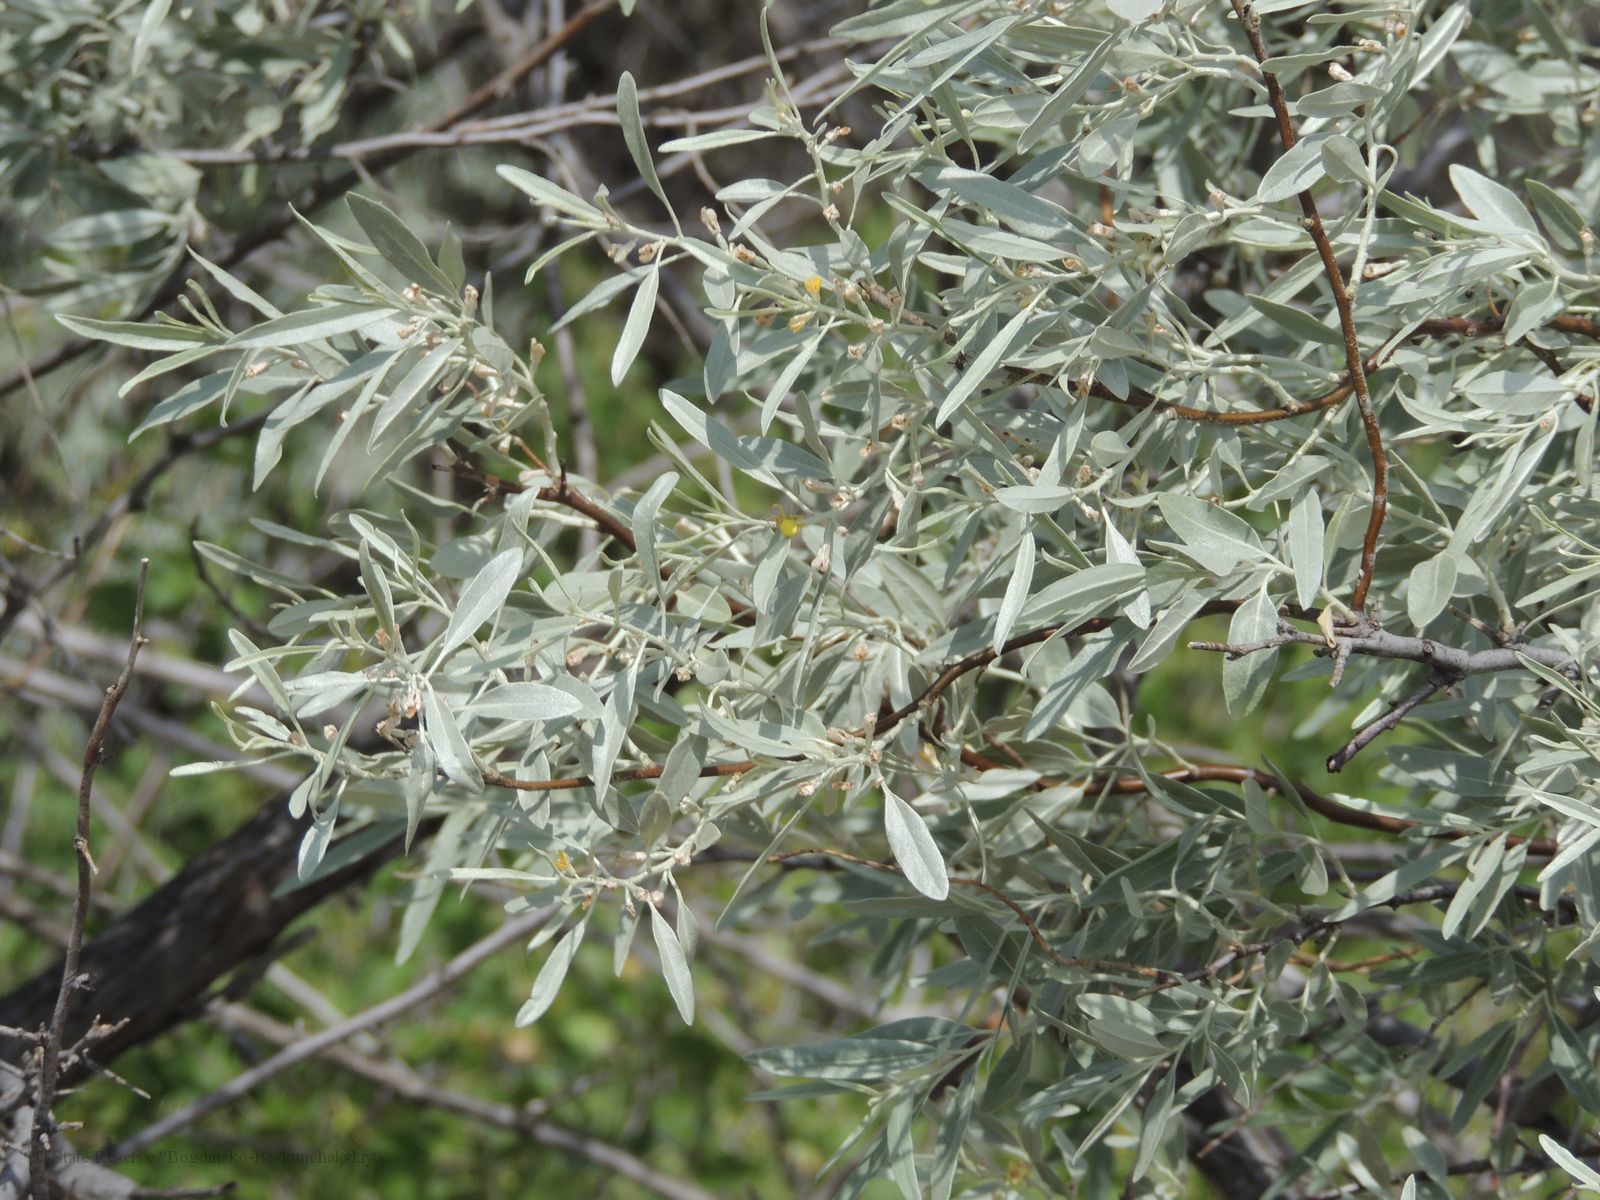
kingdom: Plantae
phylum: Tracheophyta
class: Magnoliopsida
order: Rosales
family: Elaeagnaceae
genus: Elaeagnus
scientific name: Elaeagnus angustifolia
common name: Russian olive
